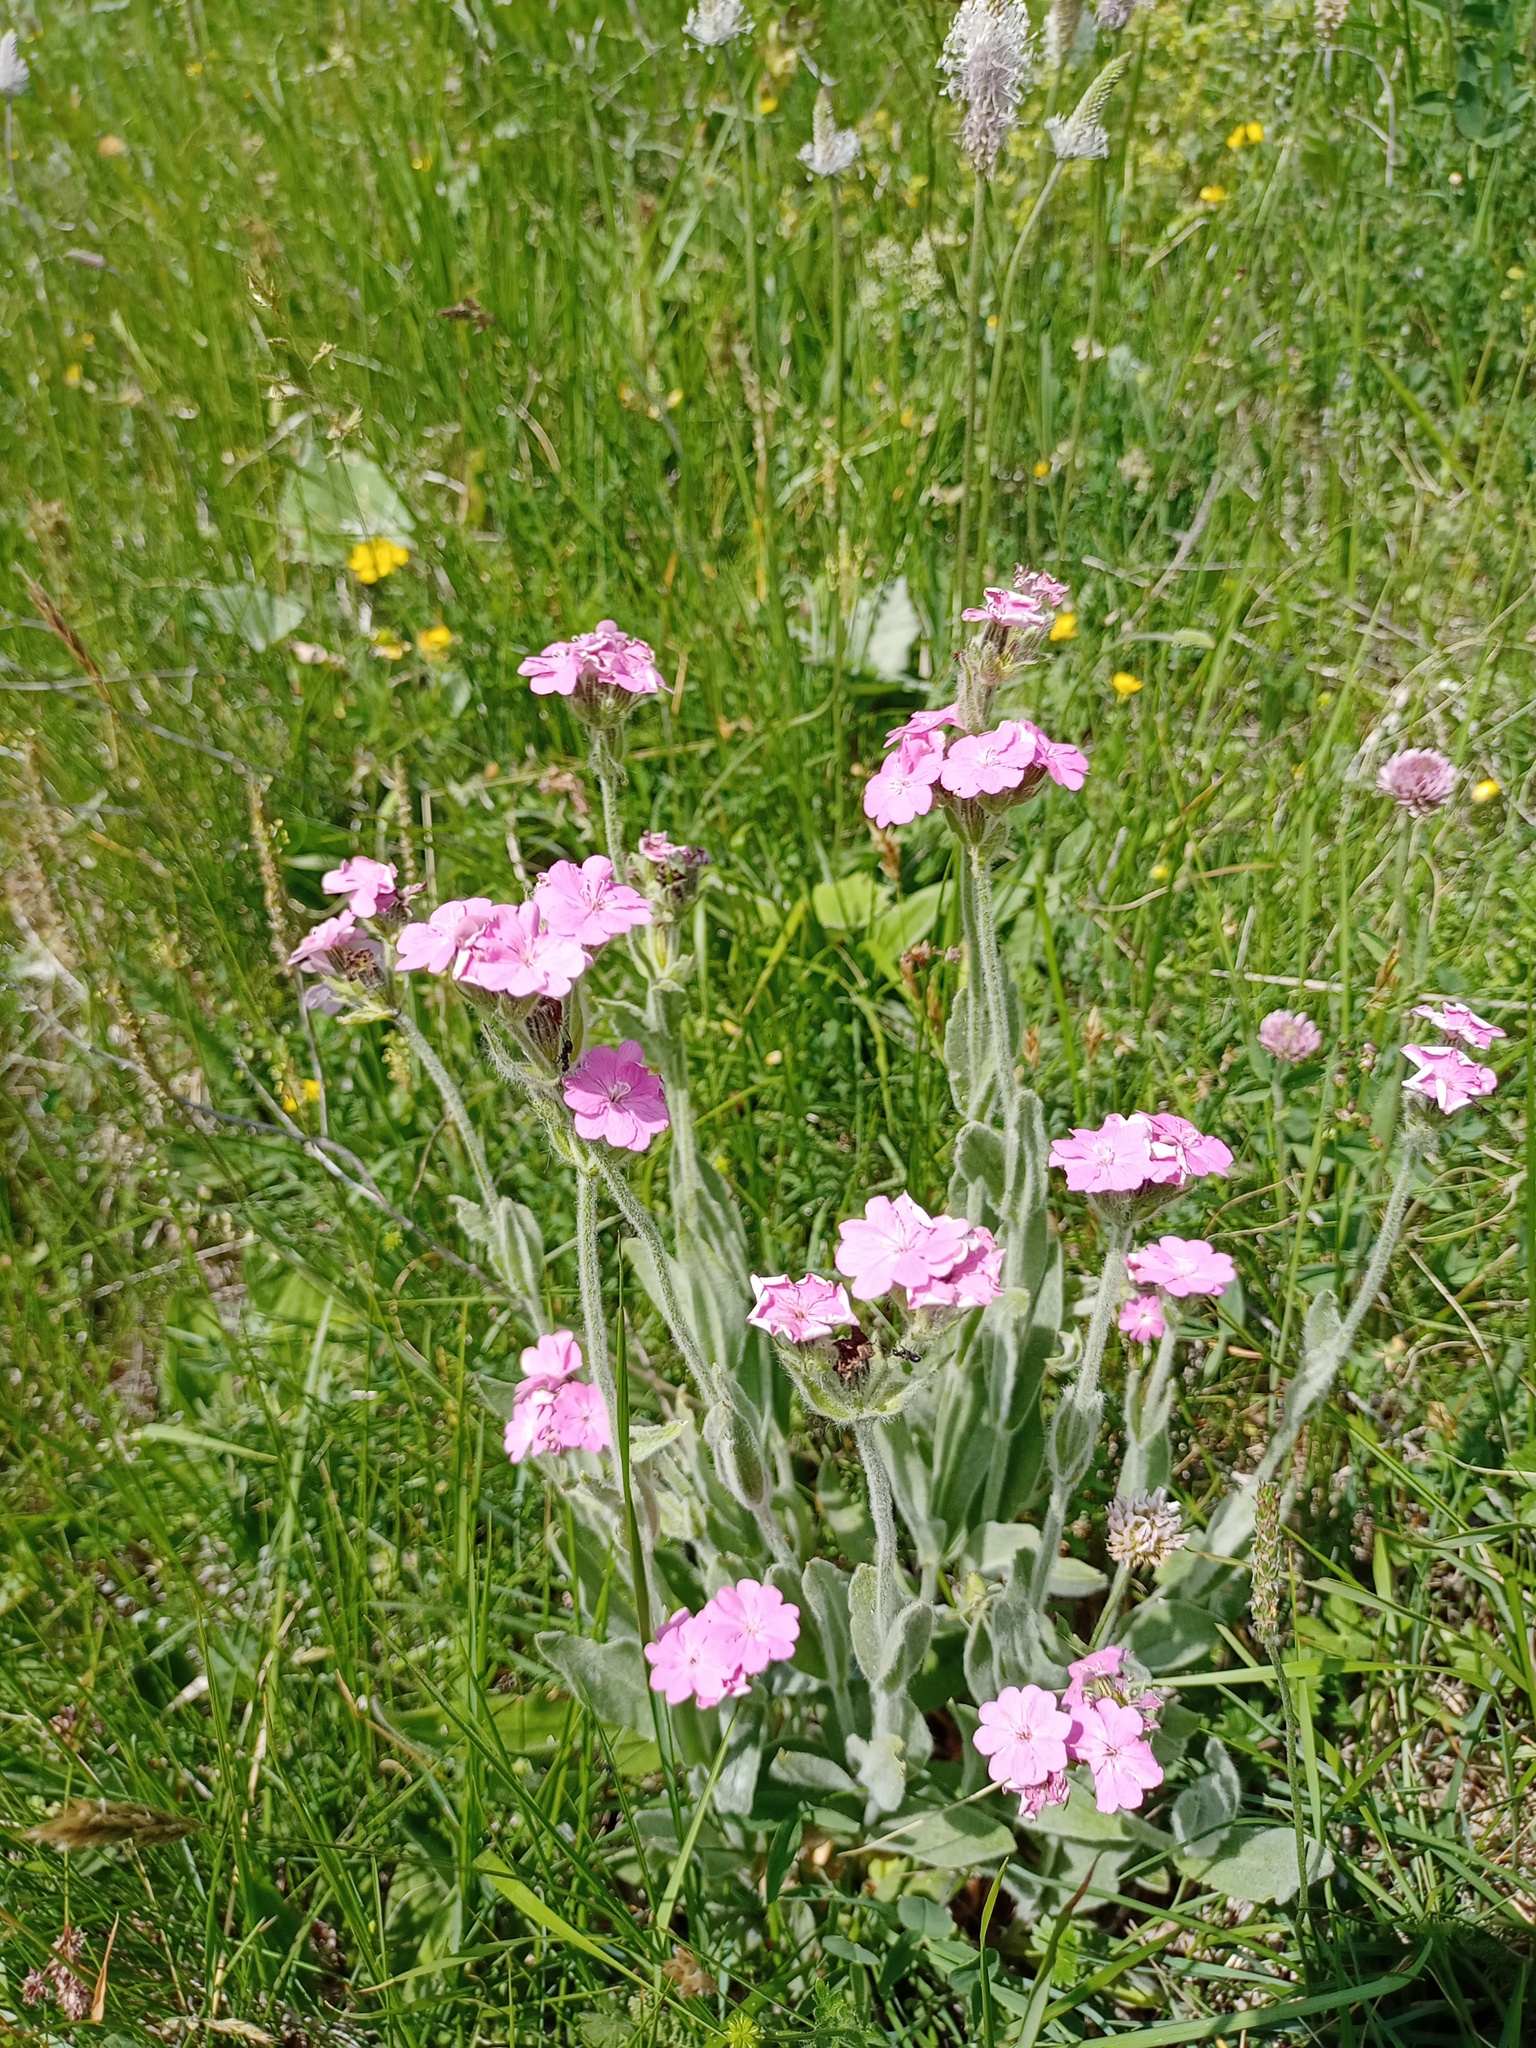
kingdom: Plantae
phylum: Tracheophyta
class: Magnoliopsida
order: Caryophyllales
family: Caryophyllaceae
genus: Silene
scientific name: Silene flos-jovis
